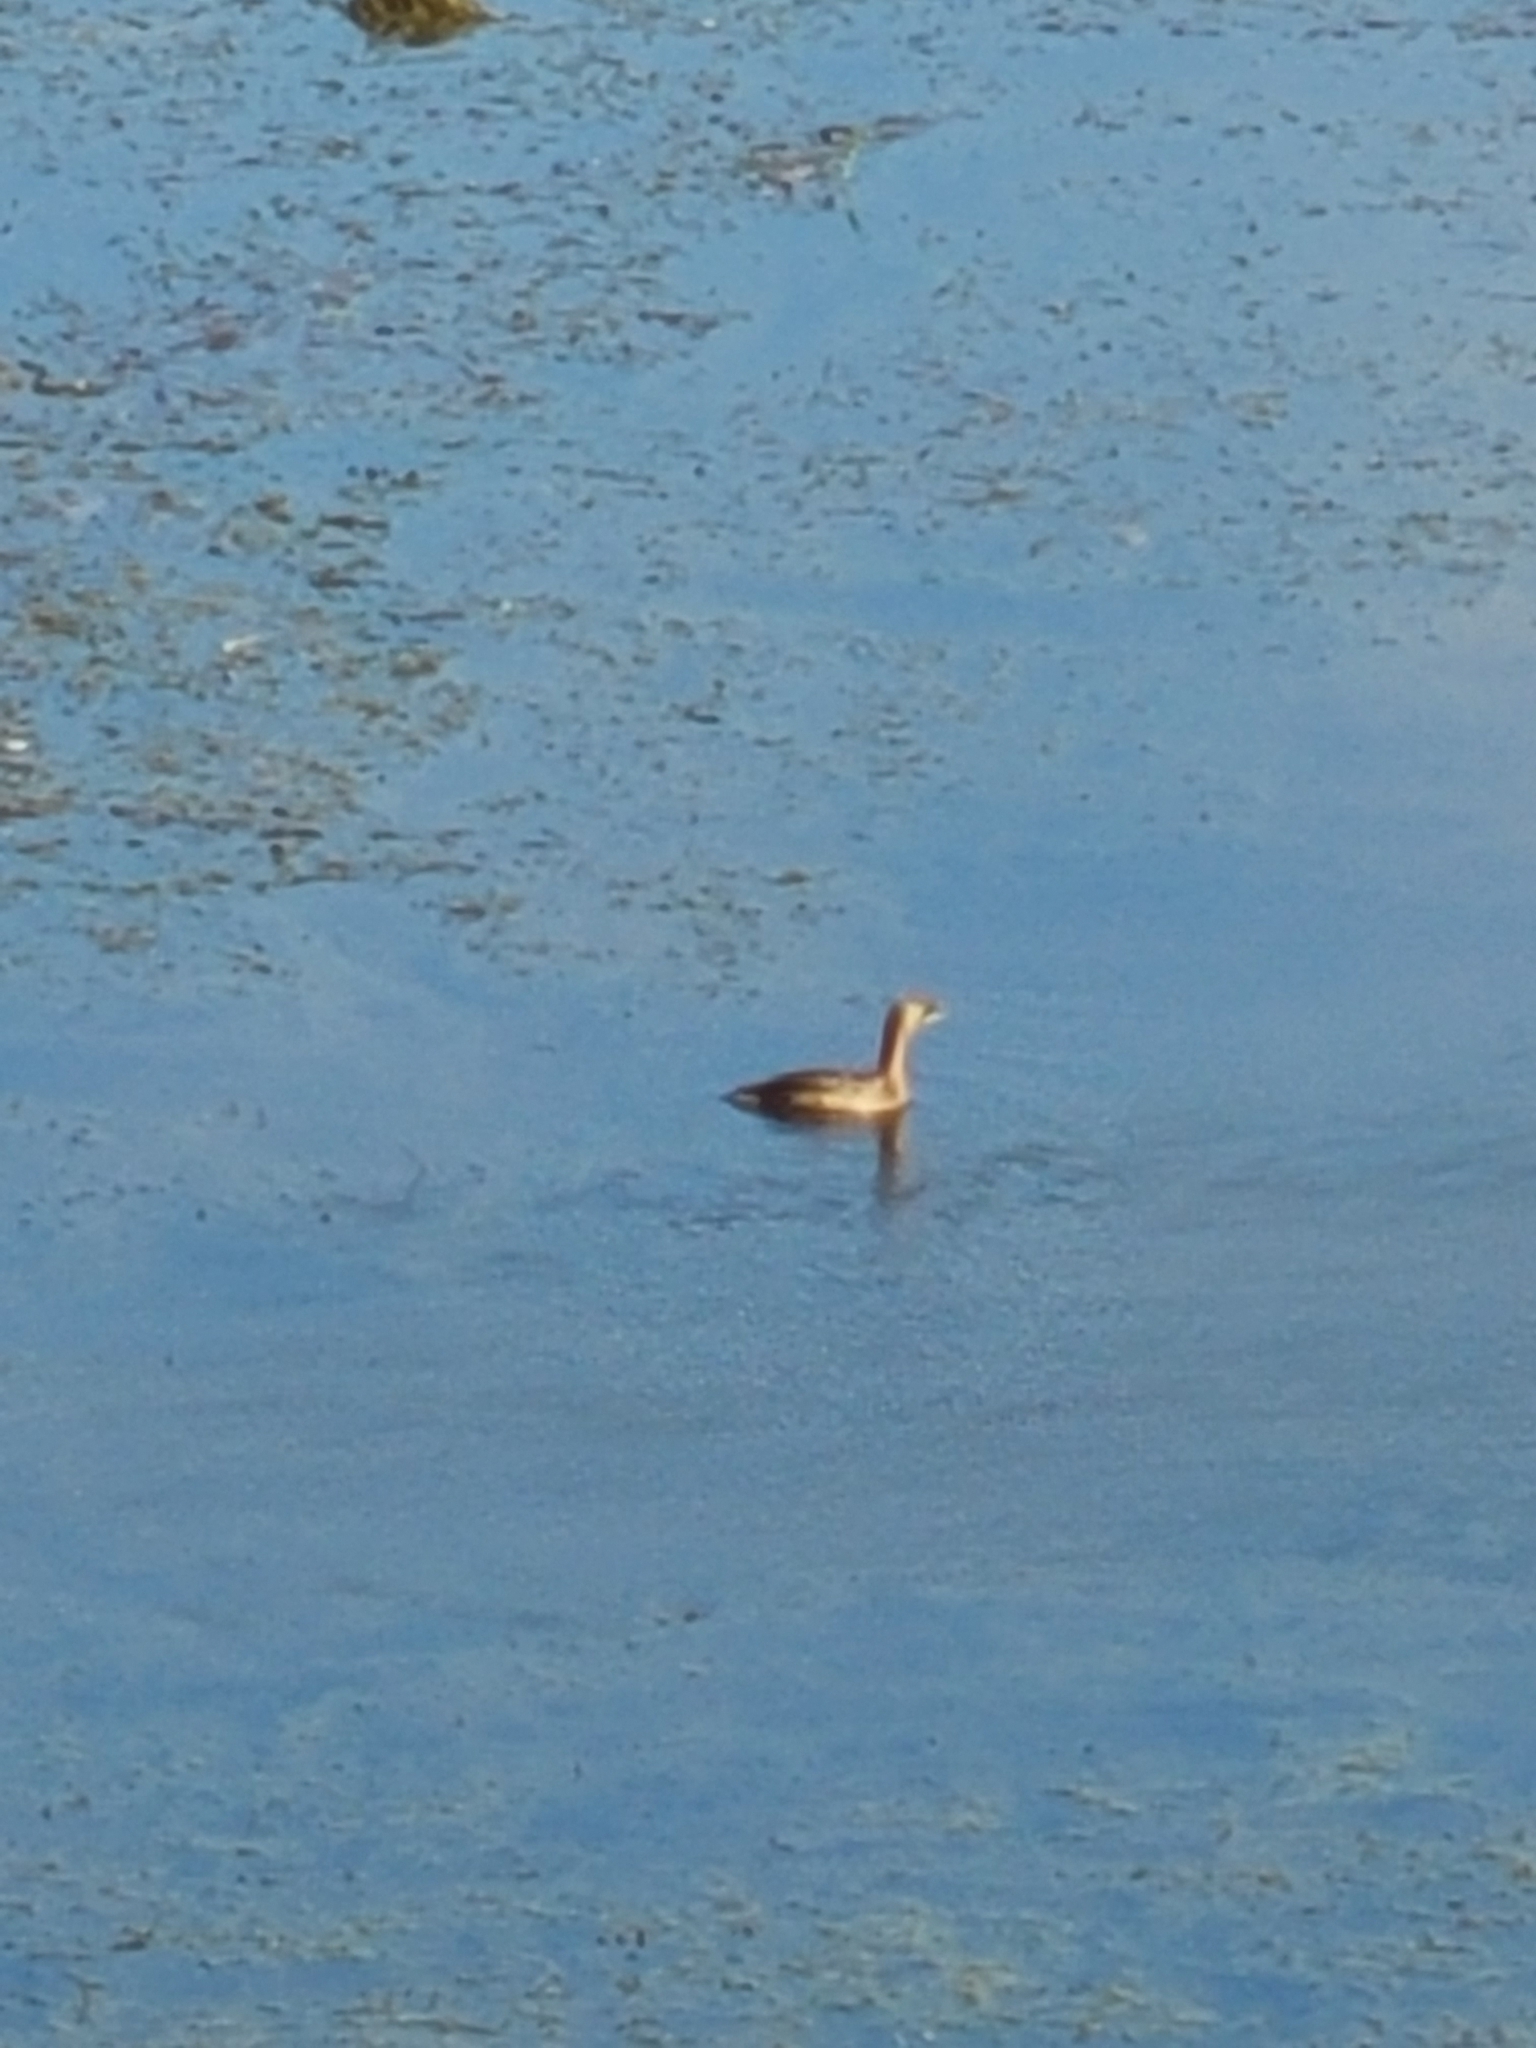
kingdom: Animalia
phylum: Chordata
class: Aves
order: Podicipediformes
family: Podicipedidae
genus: Podilymbus
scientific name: Podilymbus podiceps
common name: Pied-billed grebe
